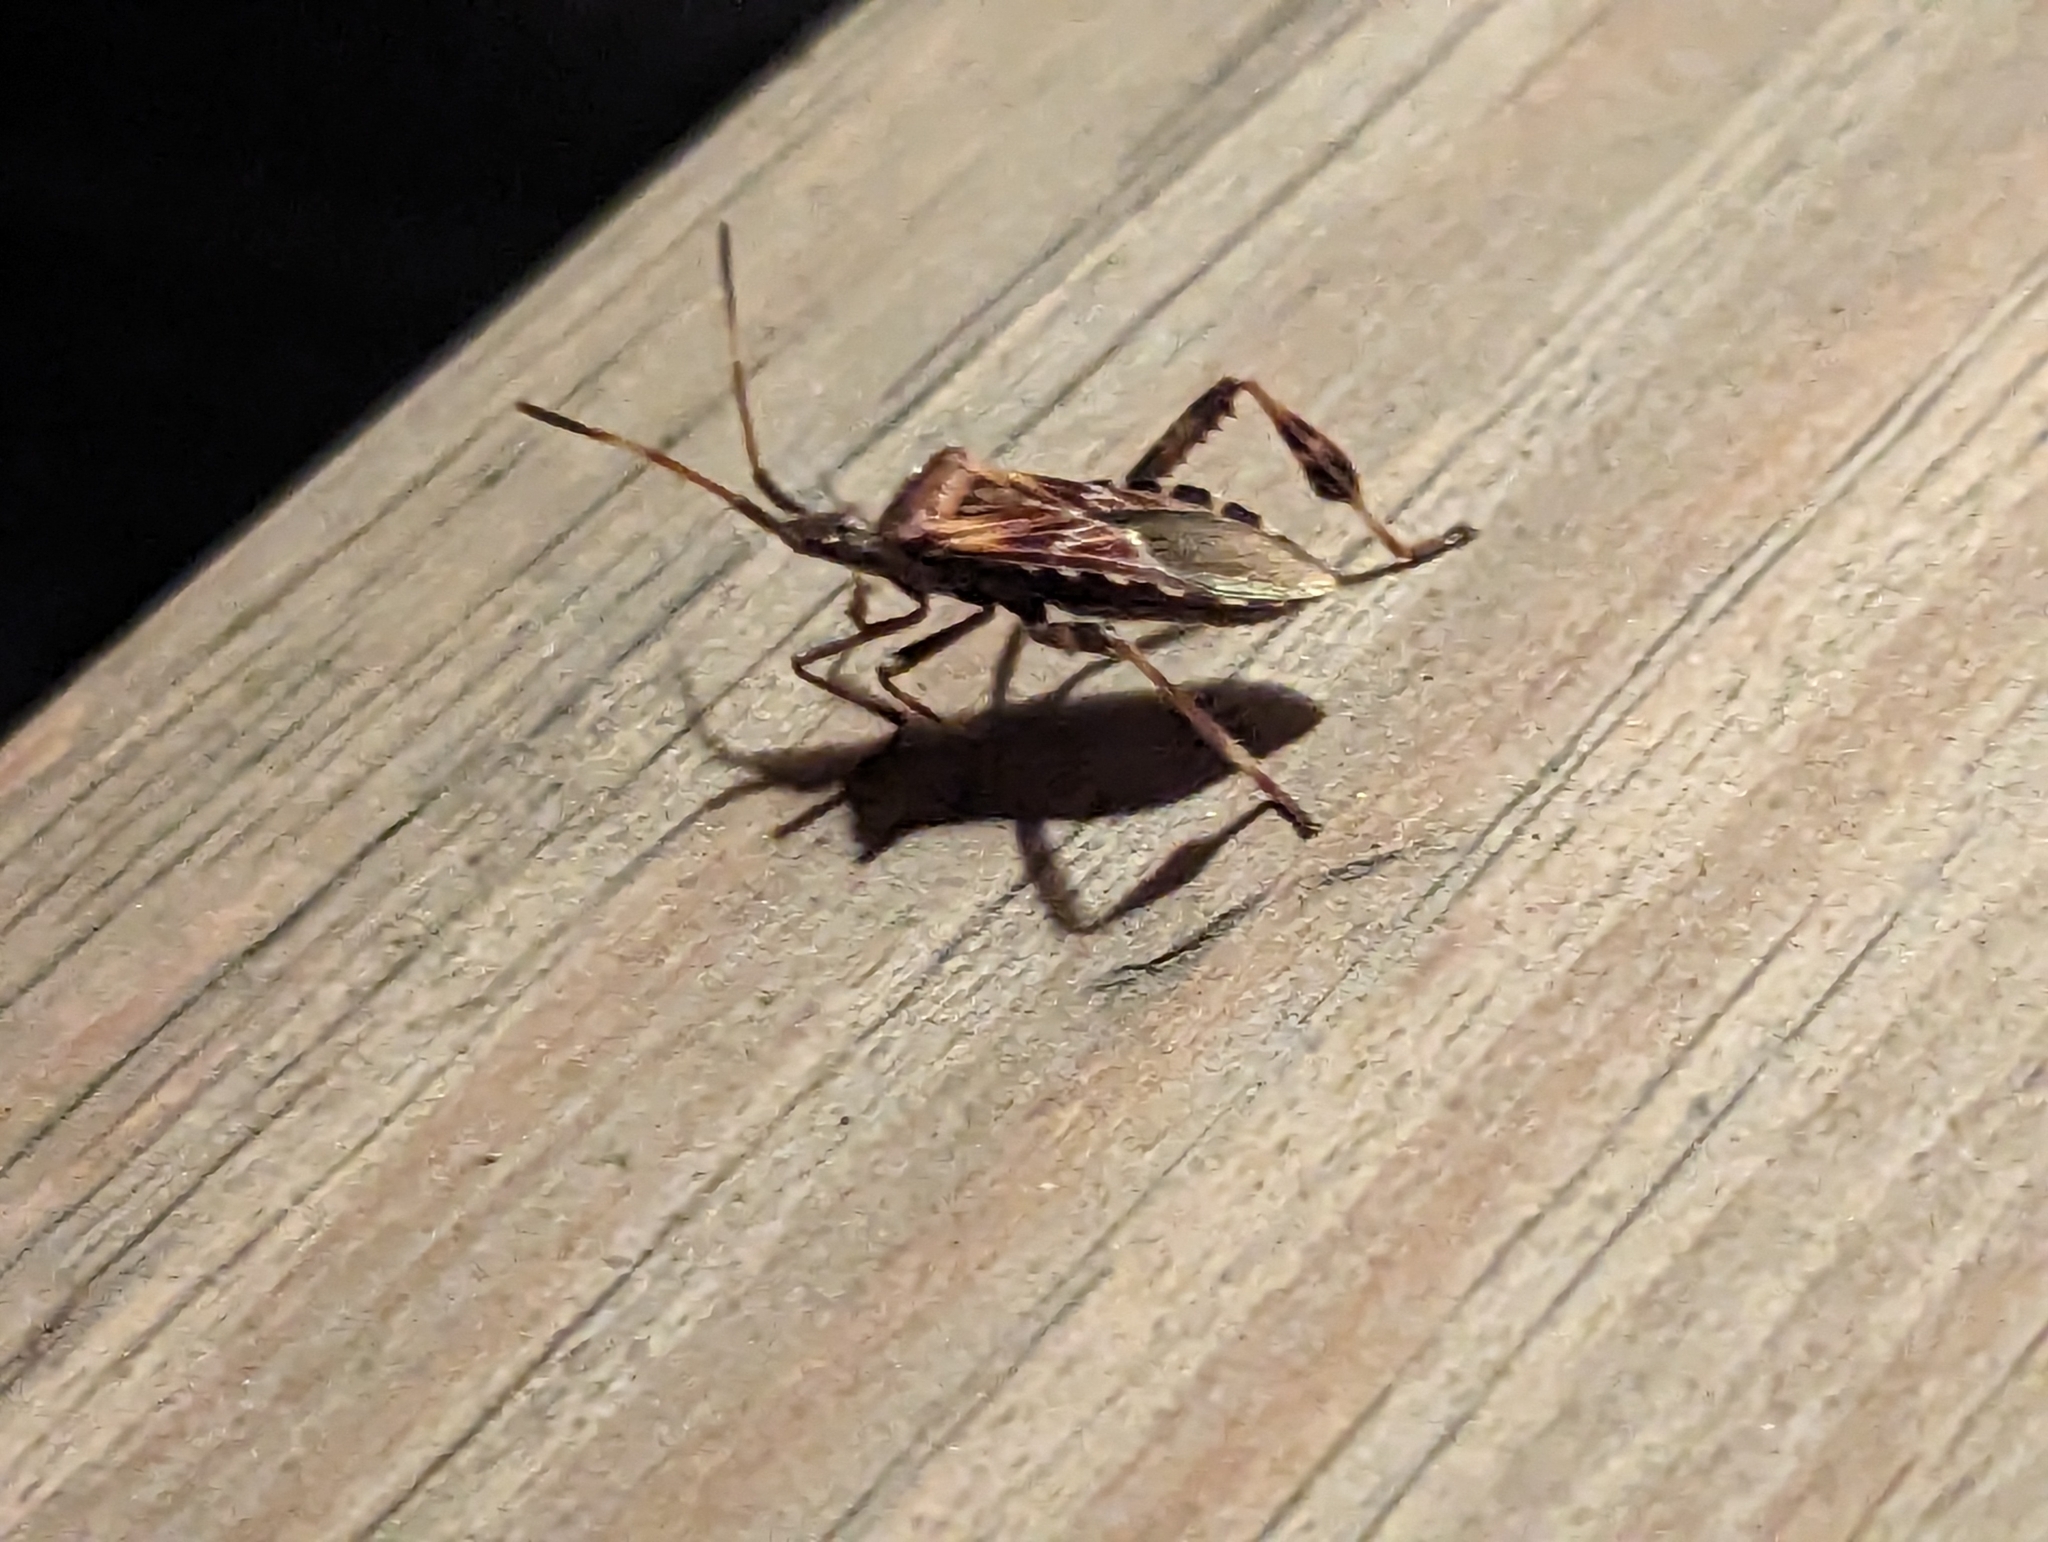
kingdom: Animalia
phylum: Arthropoda
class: Insecta
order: Hemiptera
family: Coreidae
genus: Leptoglossus
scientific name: Leptoglossus occidentalis
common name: Western conifer-seed bug
